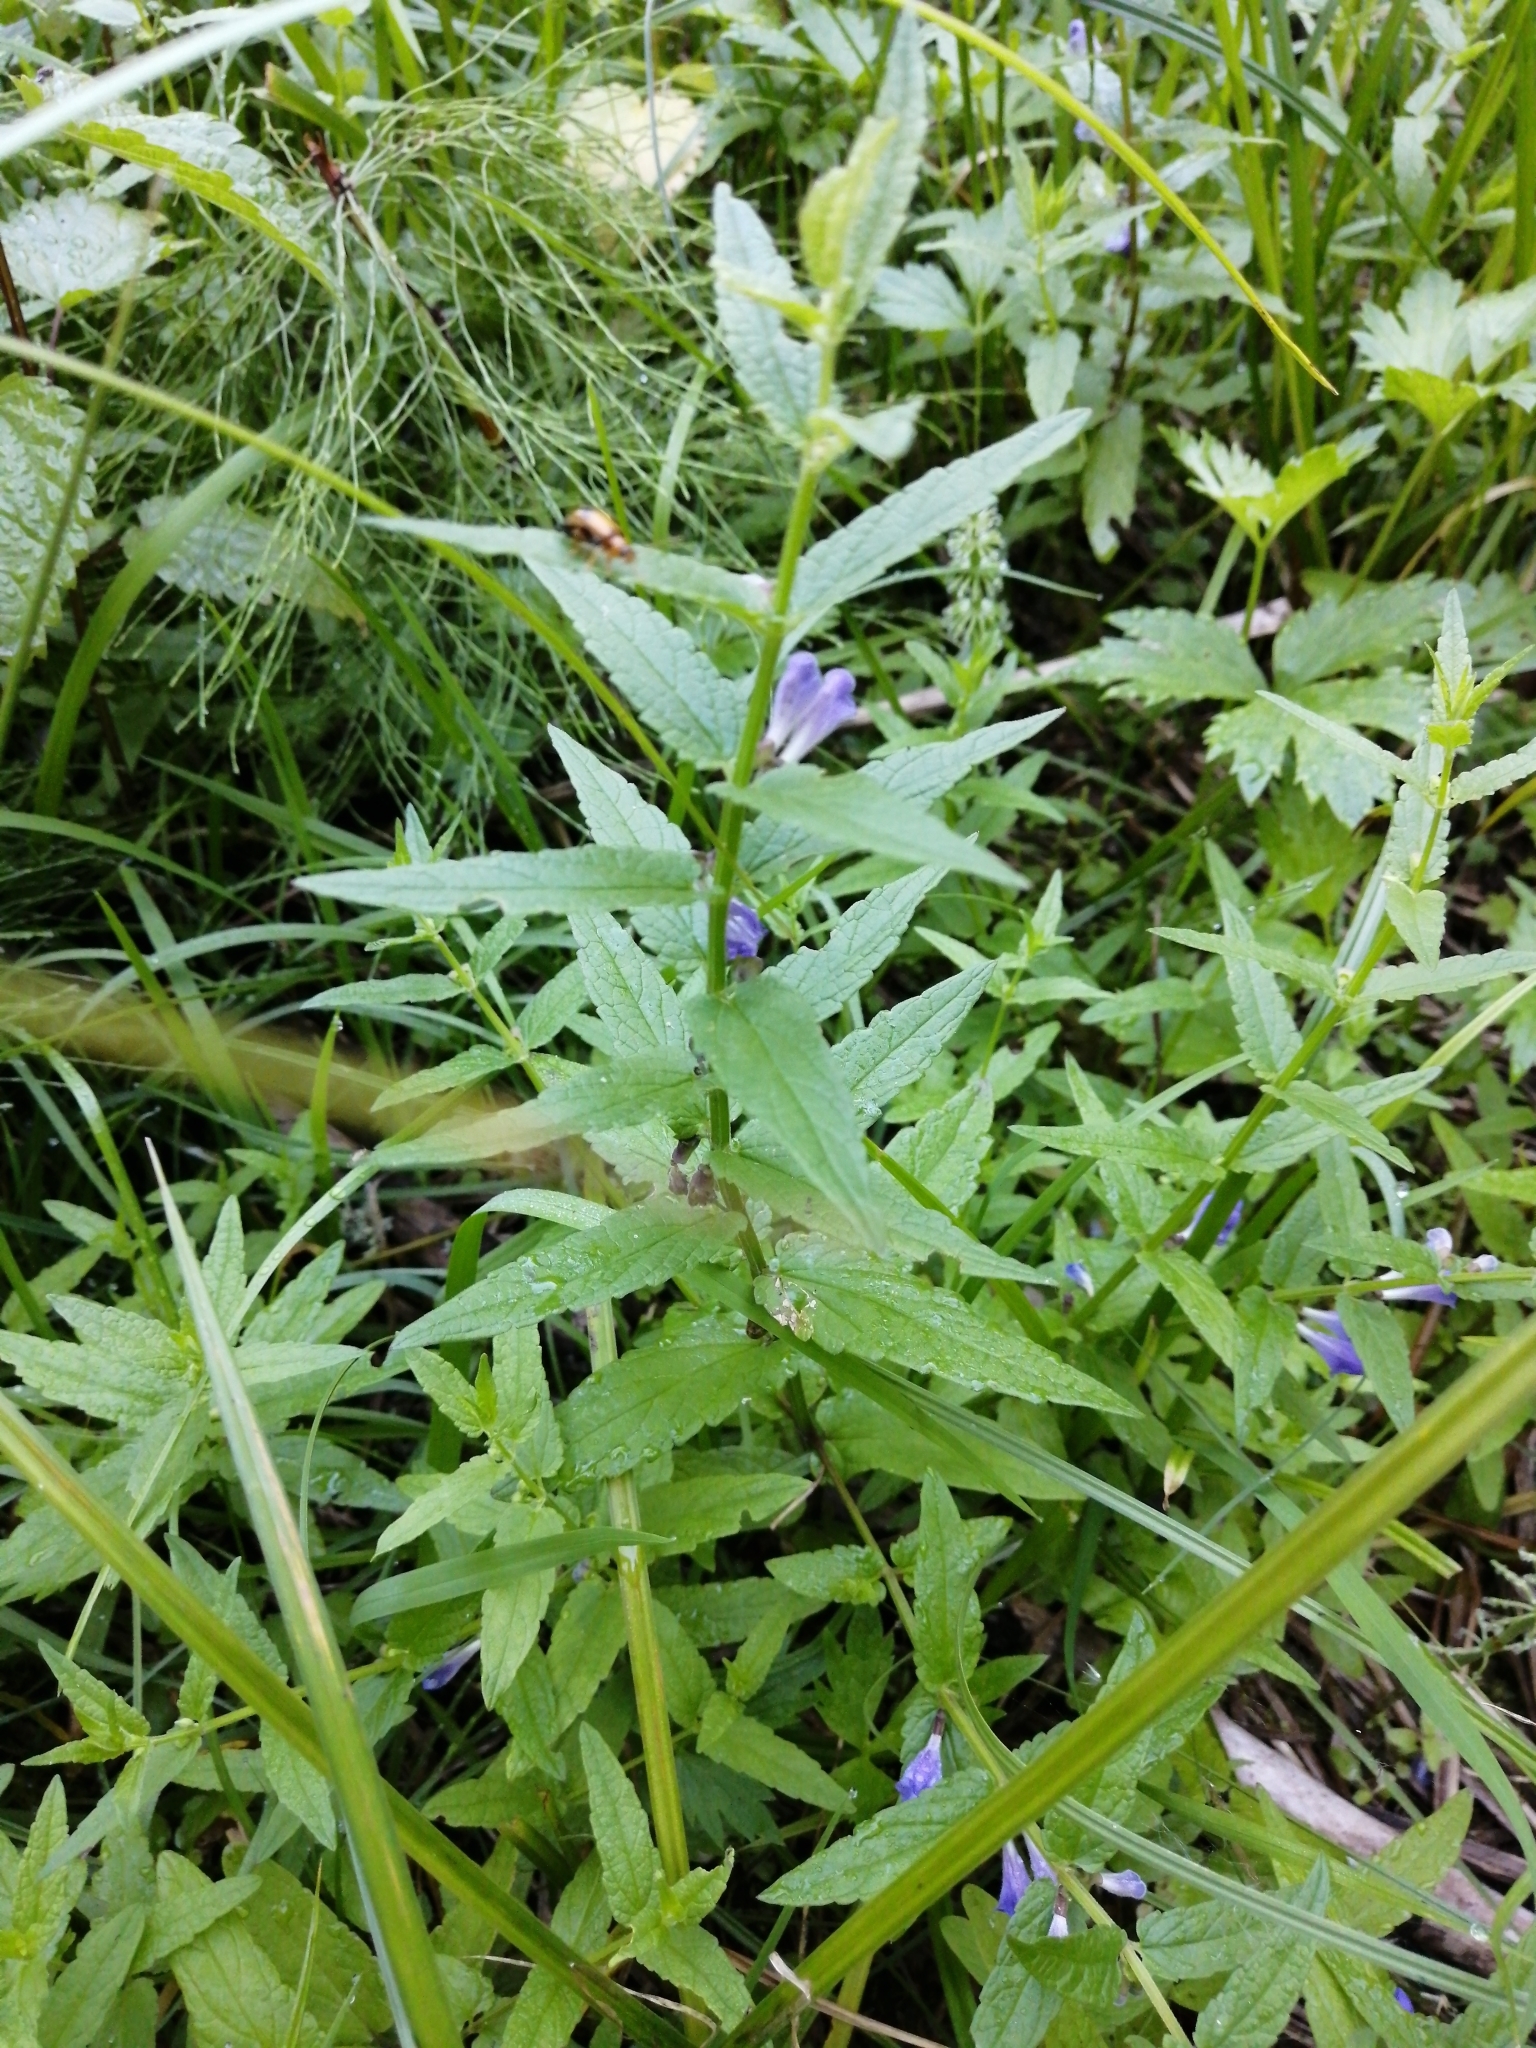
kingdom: Plantae
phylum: Tracheophyta
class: Magnoliopsida
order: Lamiales
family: Lamiaceae
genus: Scutellaria
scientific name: Scutellaria galericulata
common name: Skullcap
